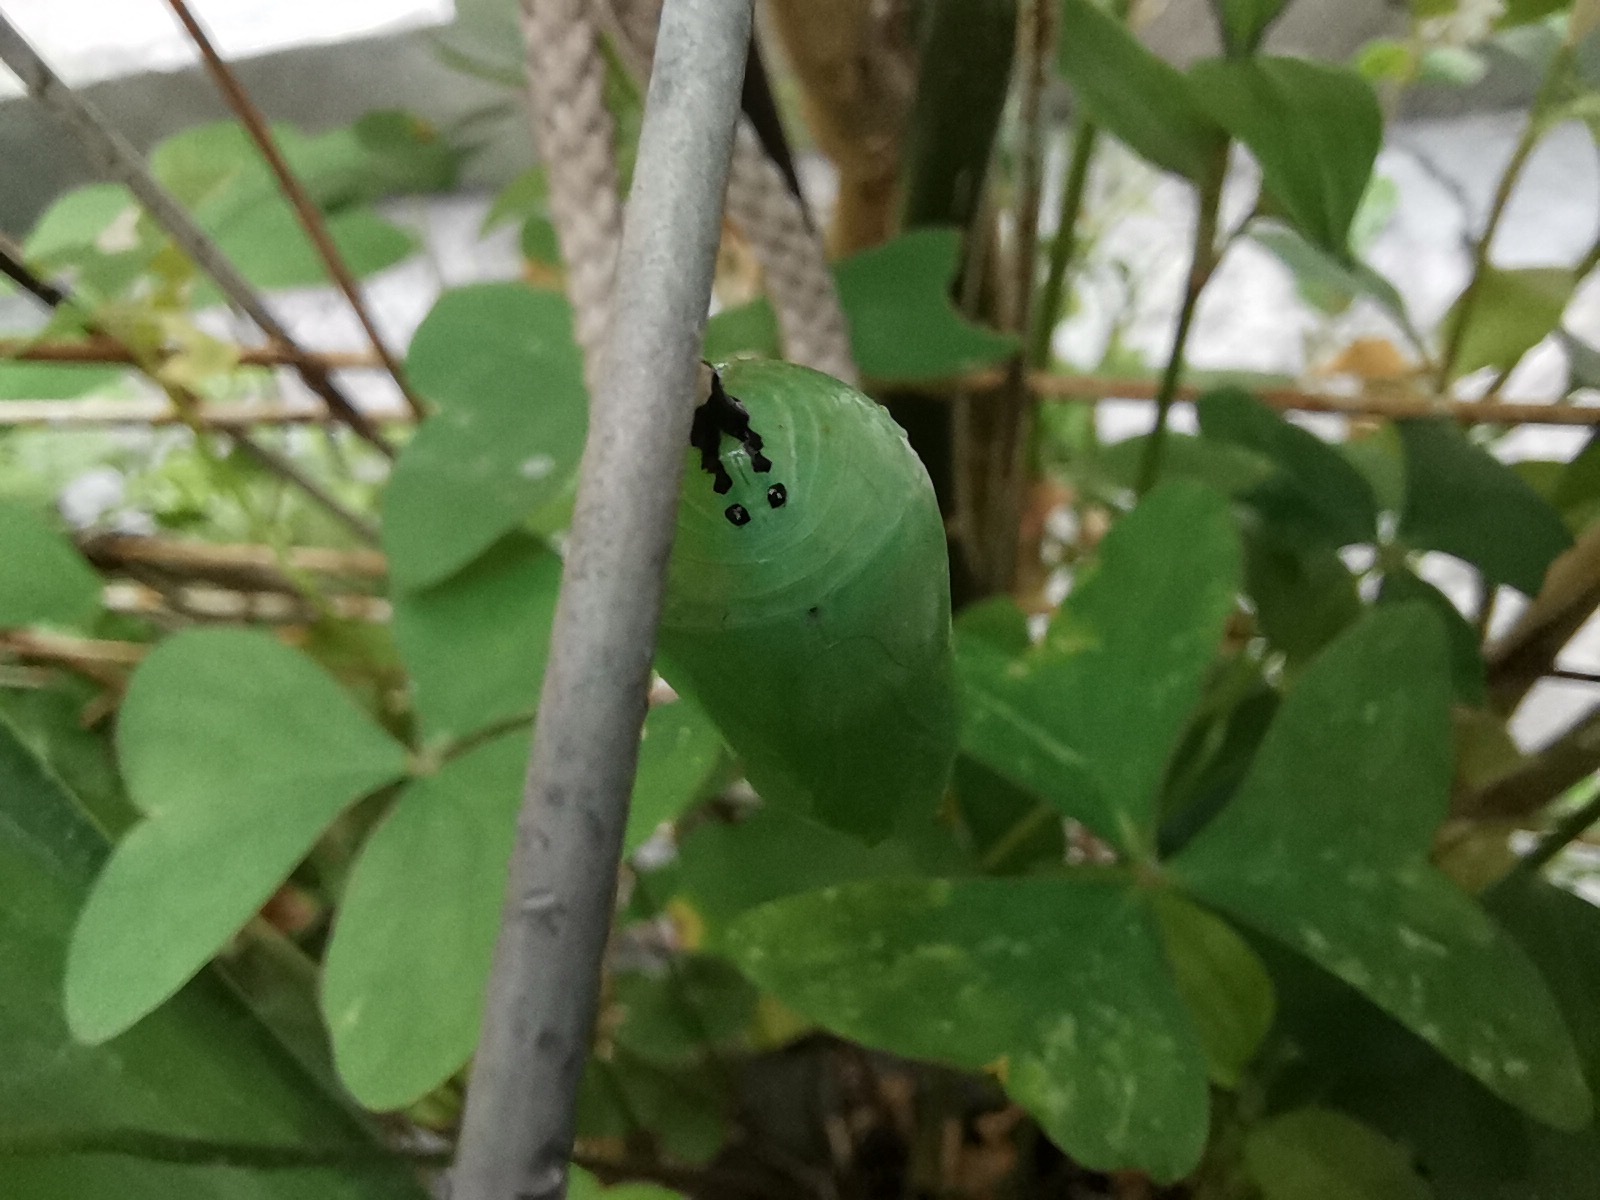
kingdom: Animalia
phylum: Arthropoda
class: Insecta
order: Lepidoptera
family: Nymphalidae
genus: Danaus
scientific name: Danaus plexippus
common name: Monarch
